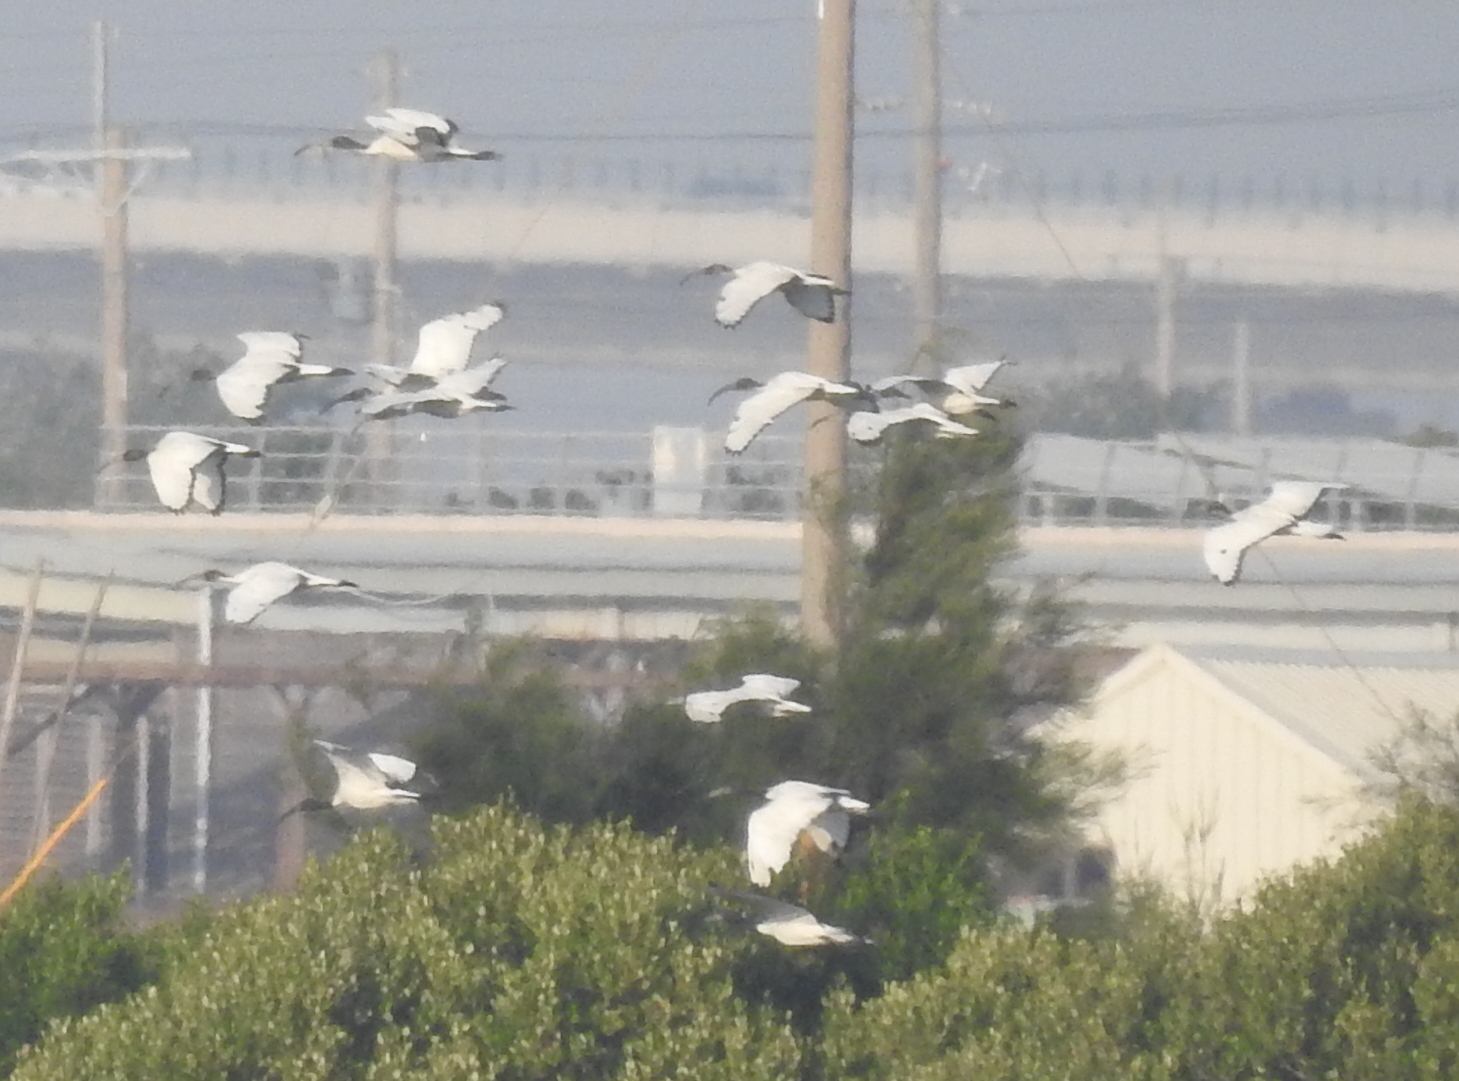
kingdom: Animalia
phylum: Chordata
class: Aves
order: Pelecaniformes
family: Threskiornithidae
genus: Threskiornis
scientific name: Threskiornis aethiopicus
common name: Sacred ibis
